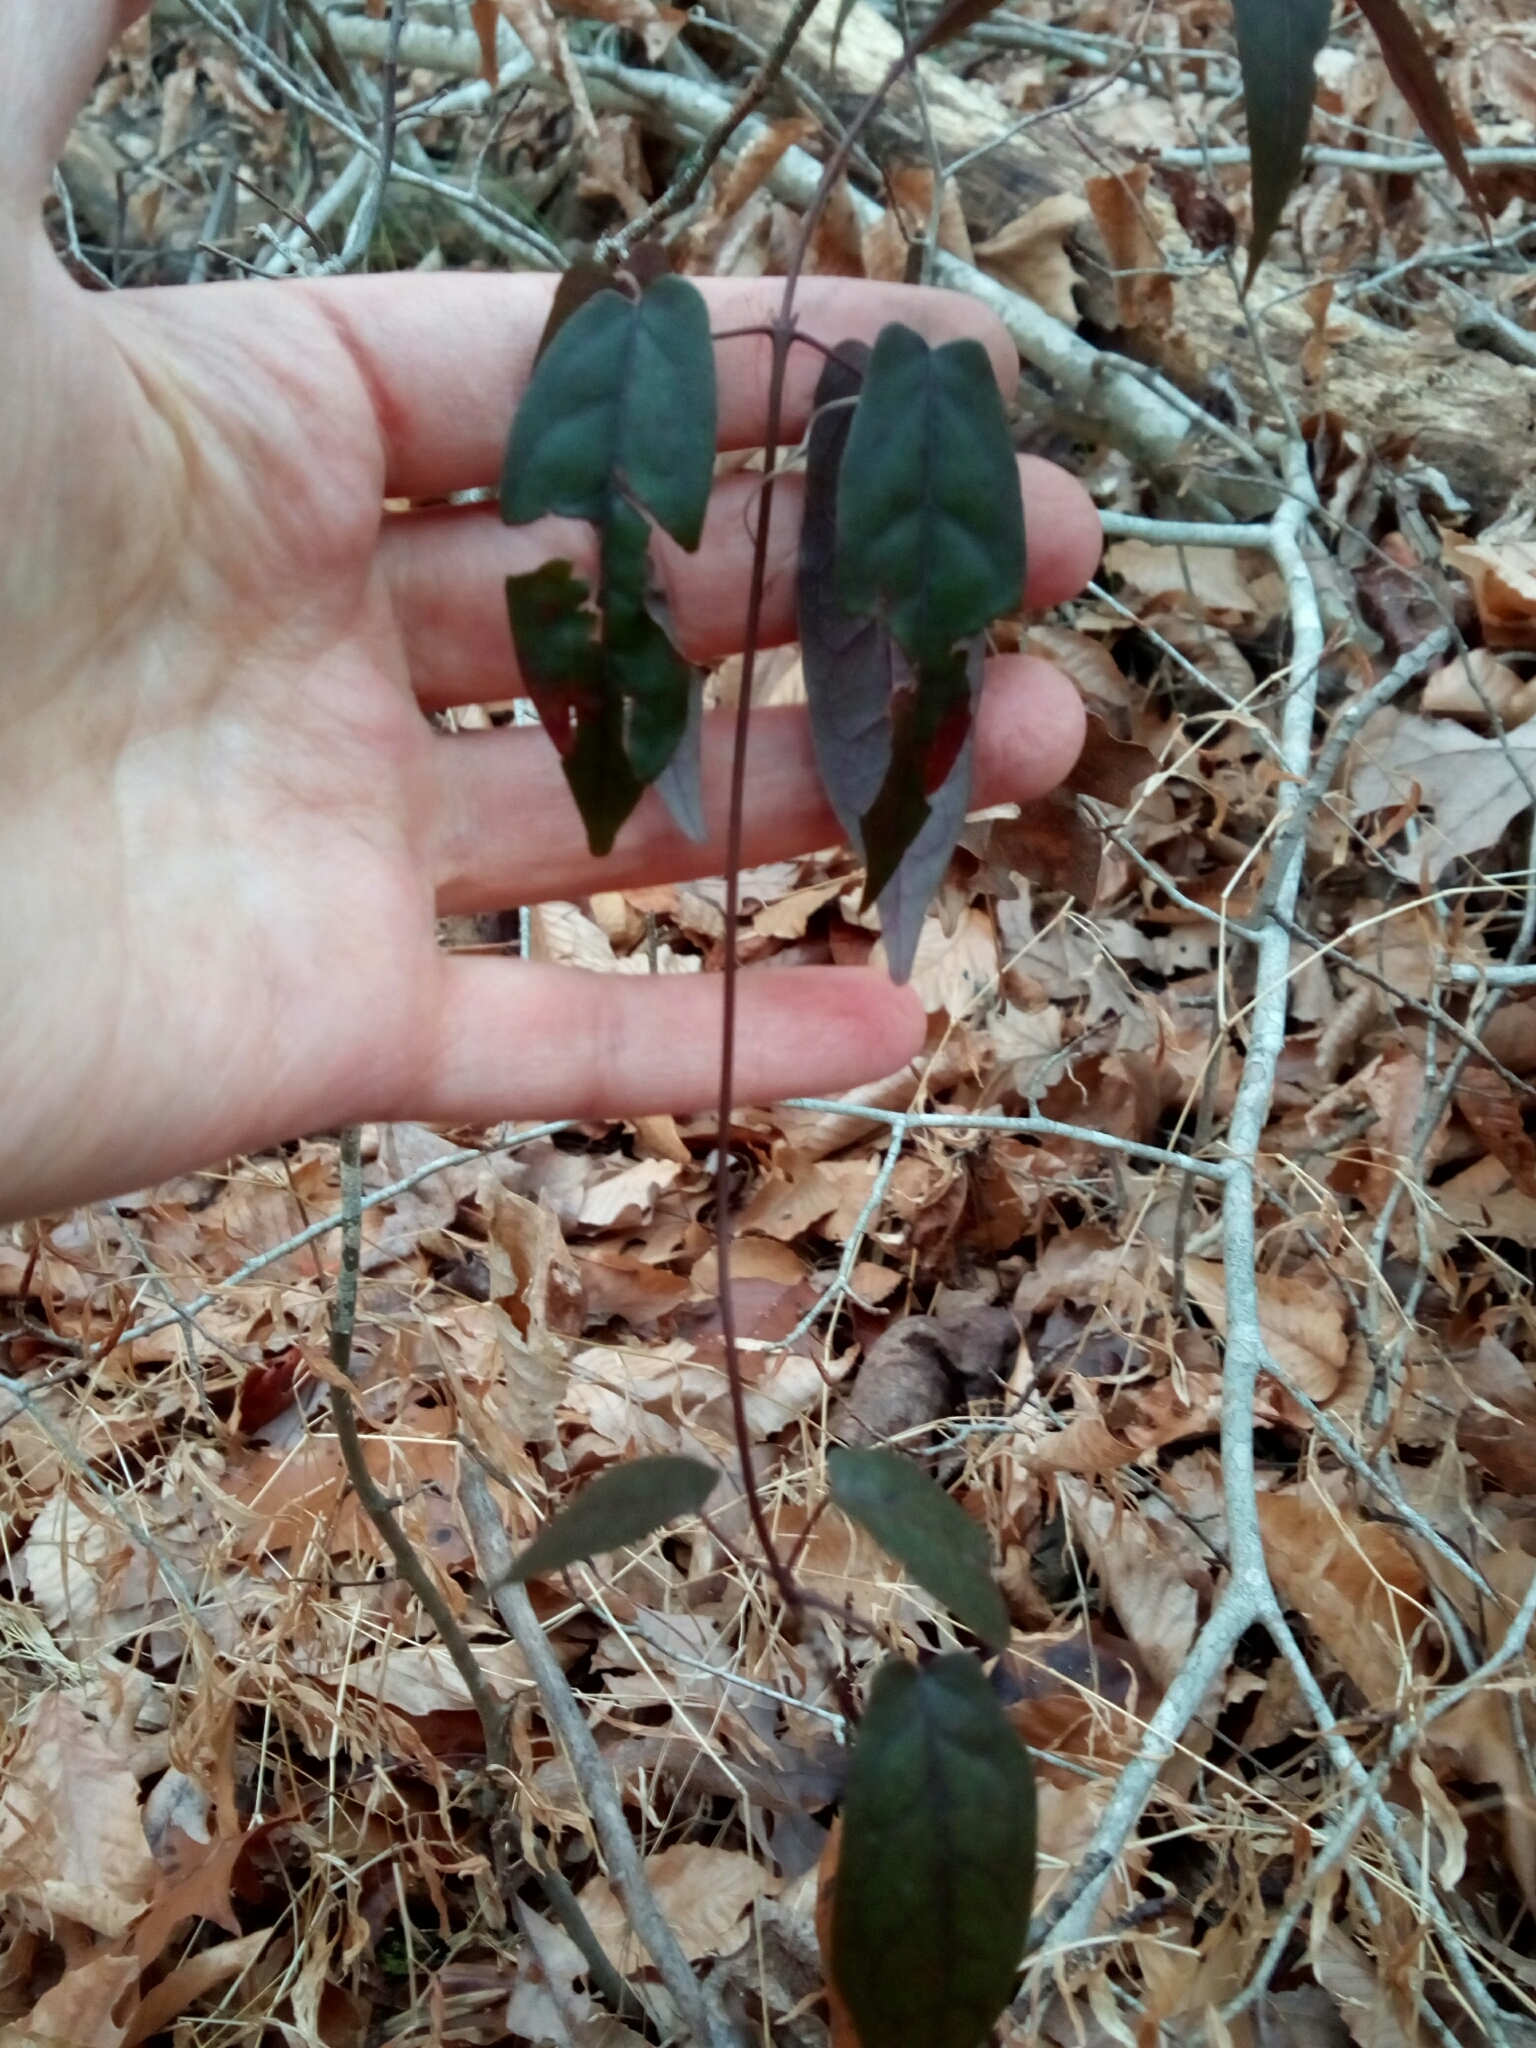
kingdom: Plantae
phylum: Tracheophyta
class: Magnoliopsida
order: Lamiales
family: Bignoniaceae
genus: Bignonia
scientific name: Bignonia capreolata
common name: Crossvine
